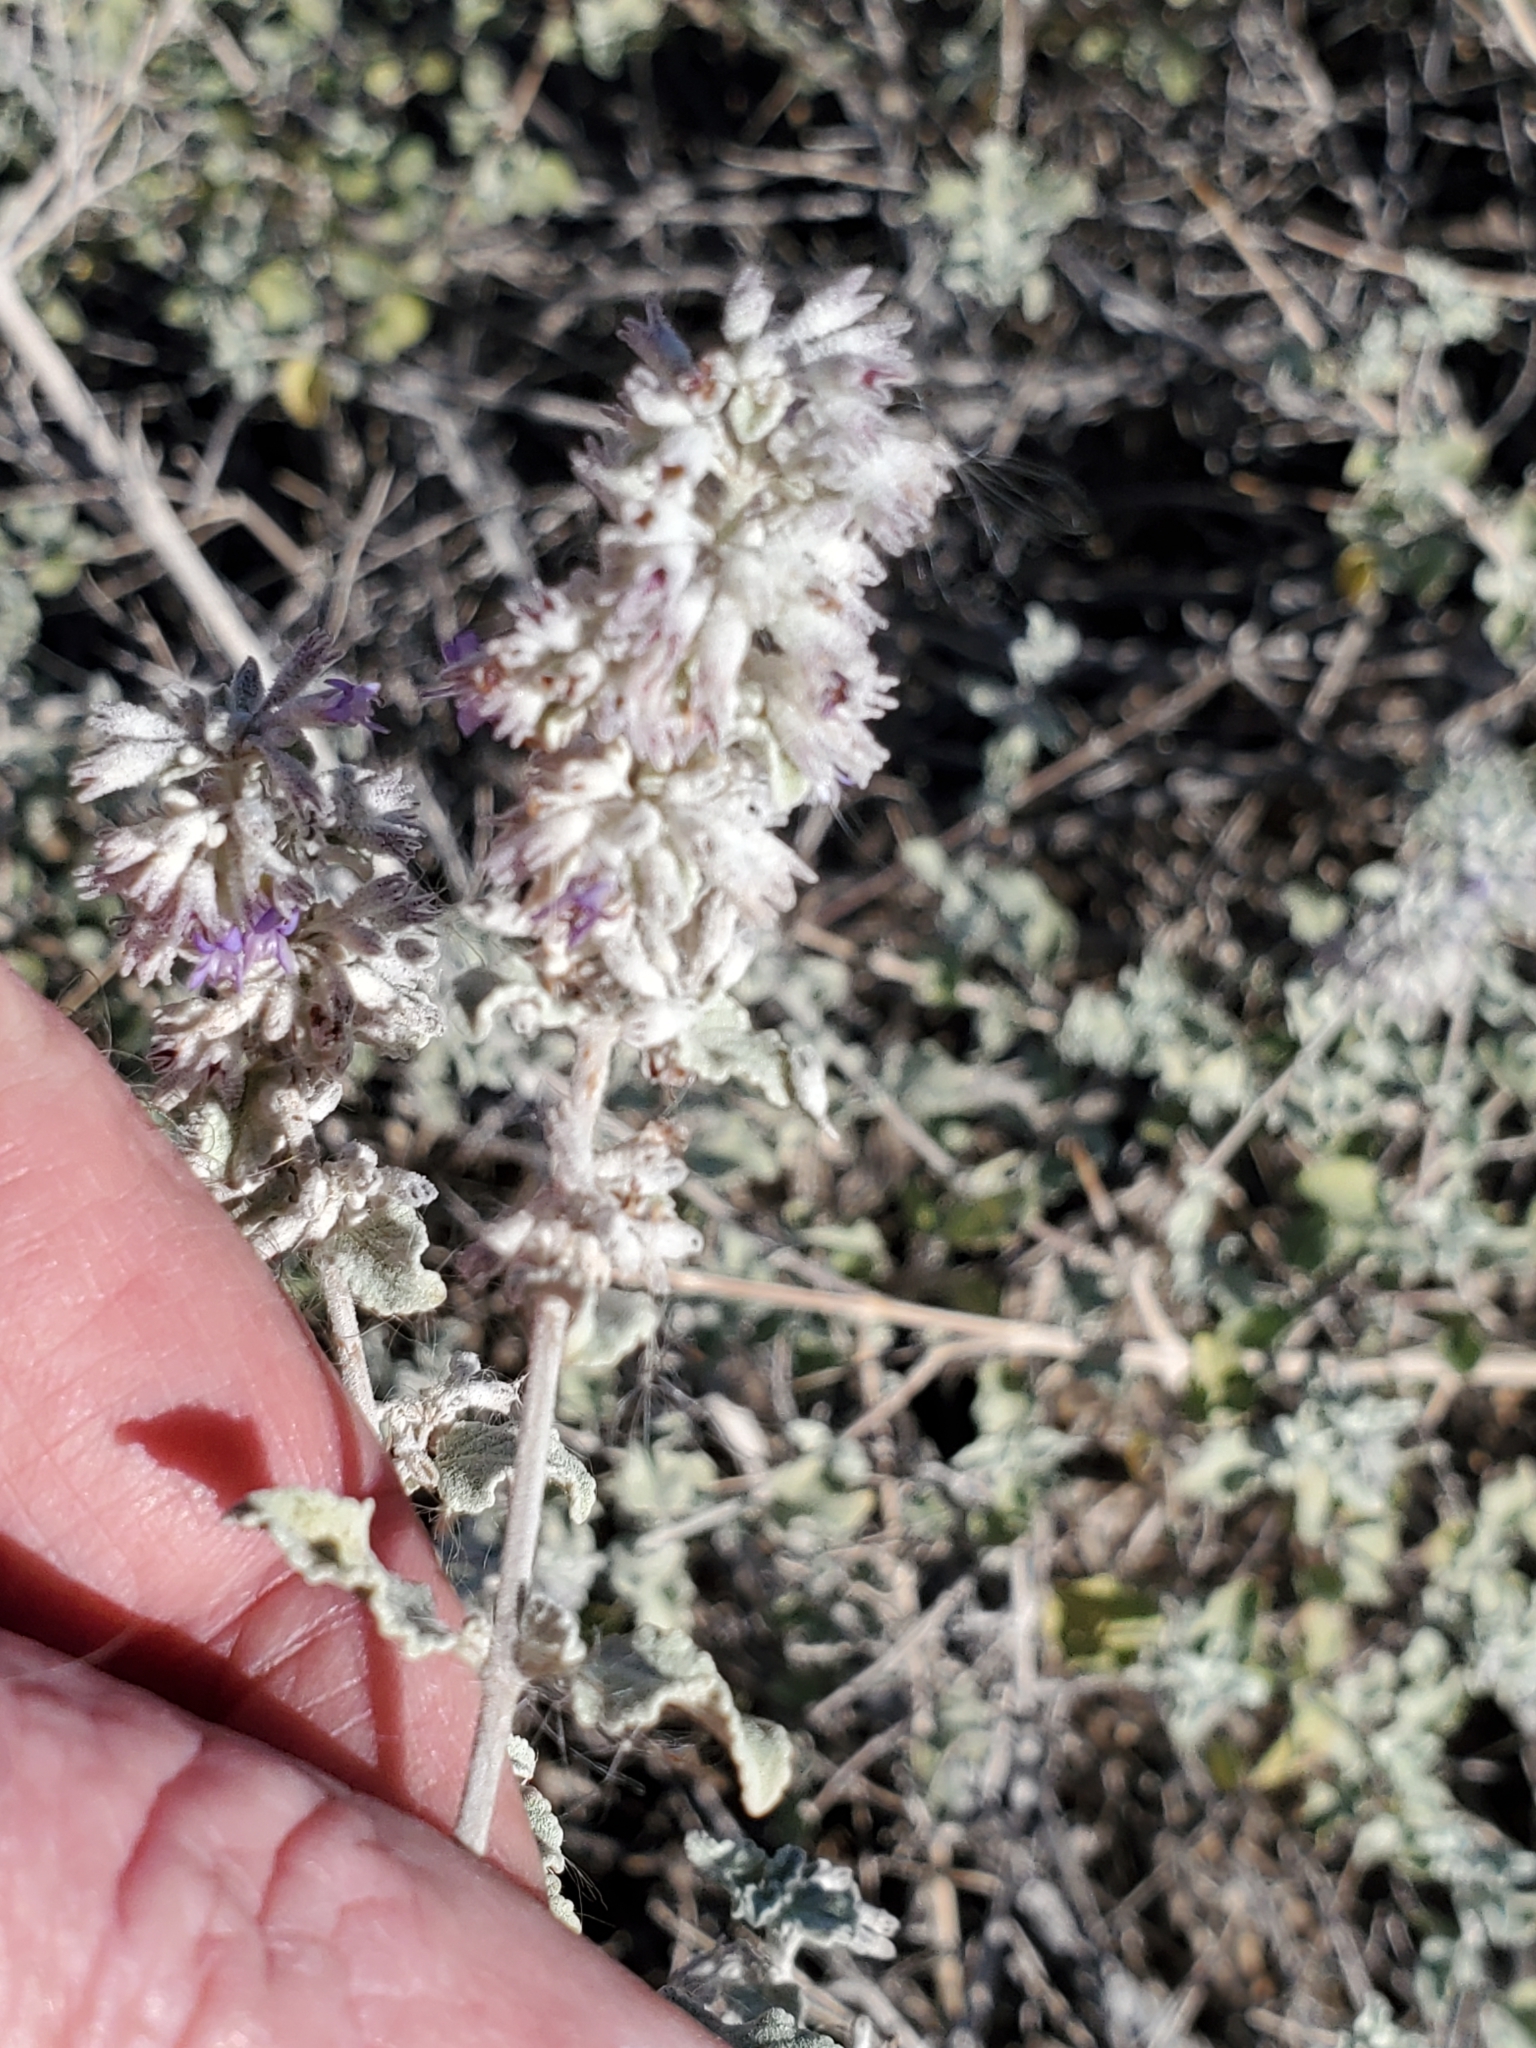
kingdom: Plantae
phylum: Tracheophyta
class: Magnoliopsida
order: Lamiales
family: Lamiaceae
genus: Condea
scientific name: Condea emoryi
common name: Chia
